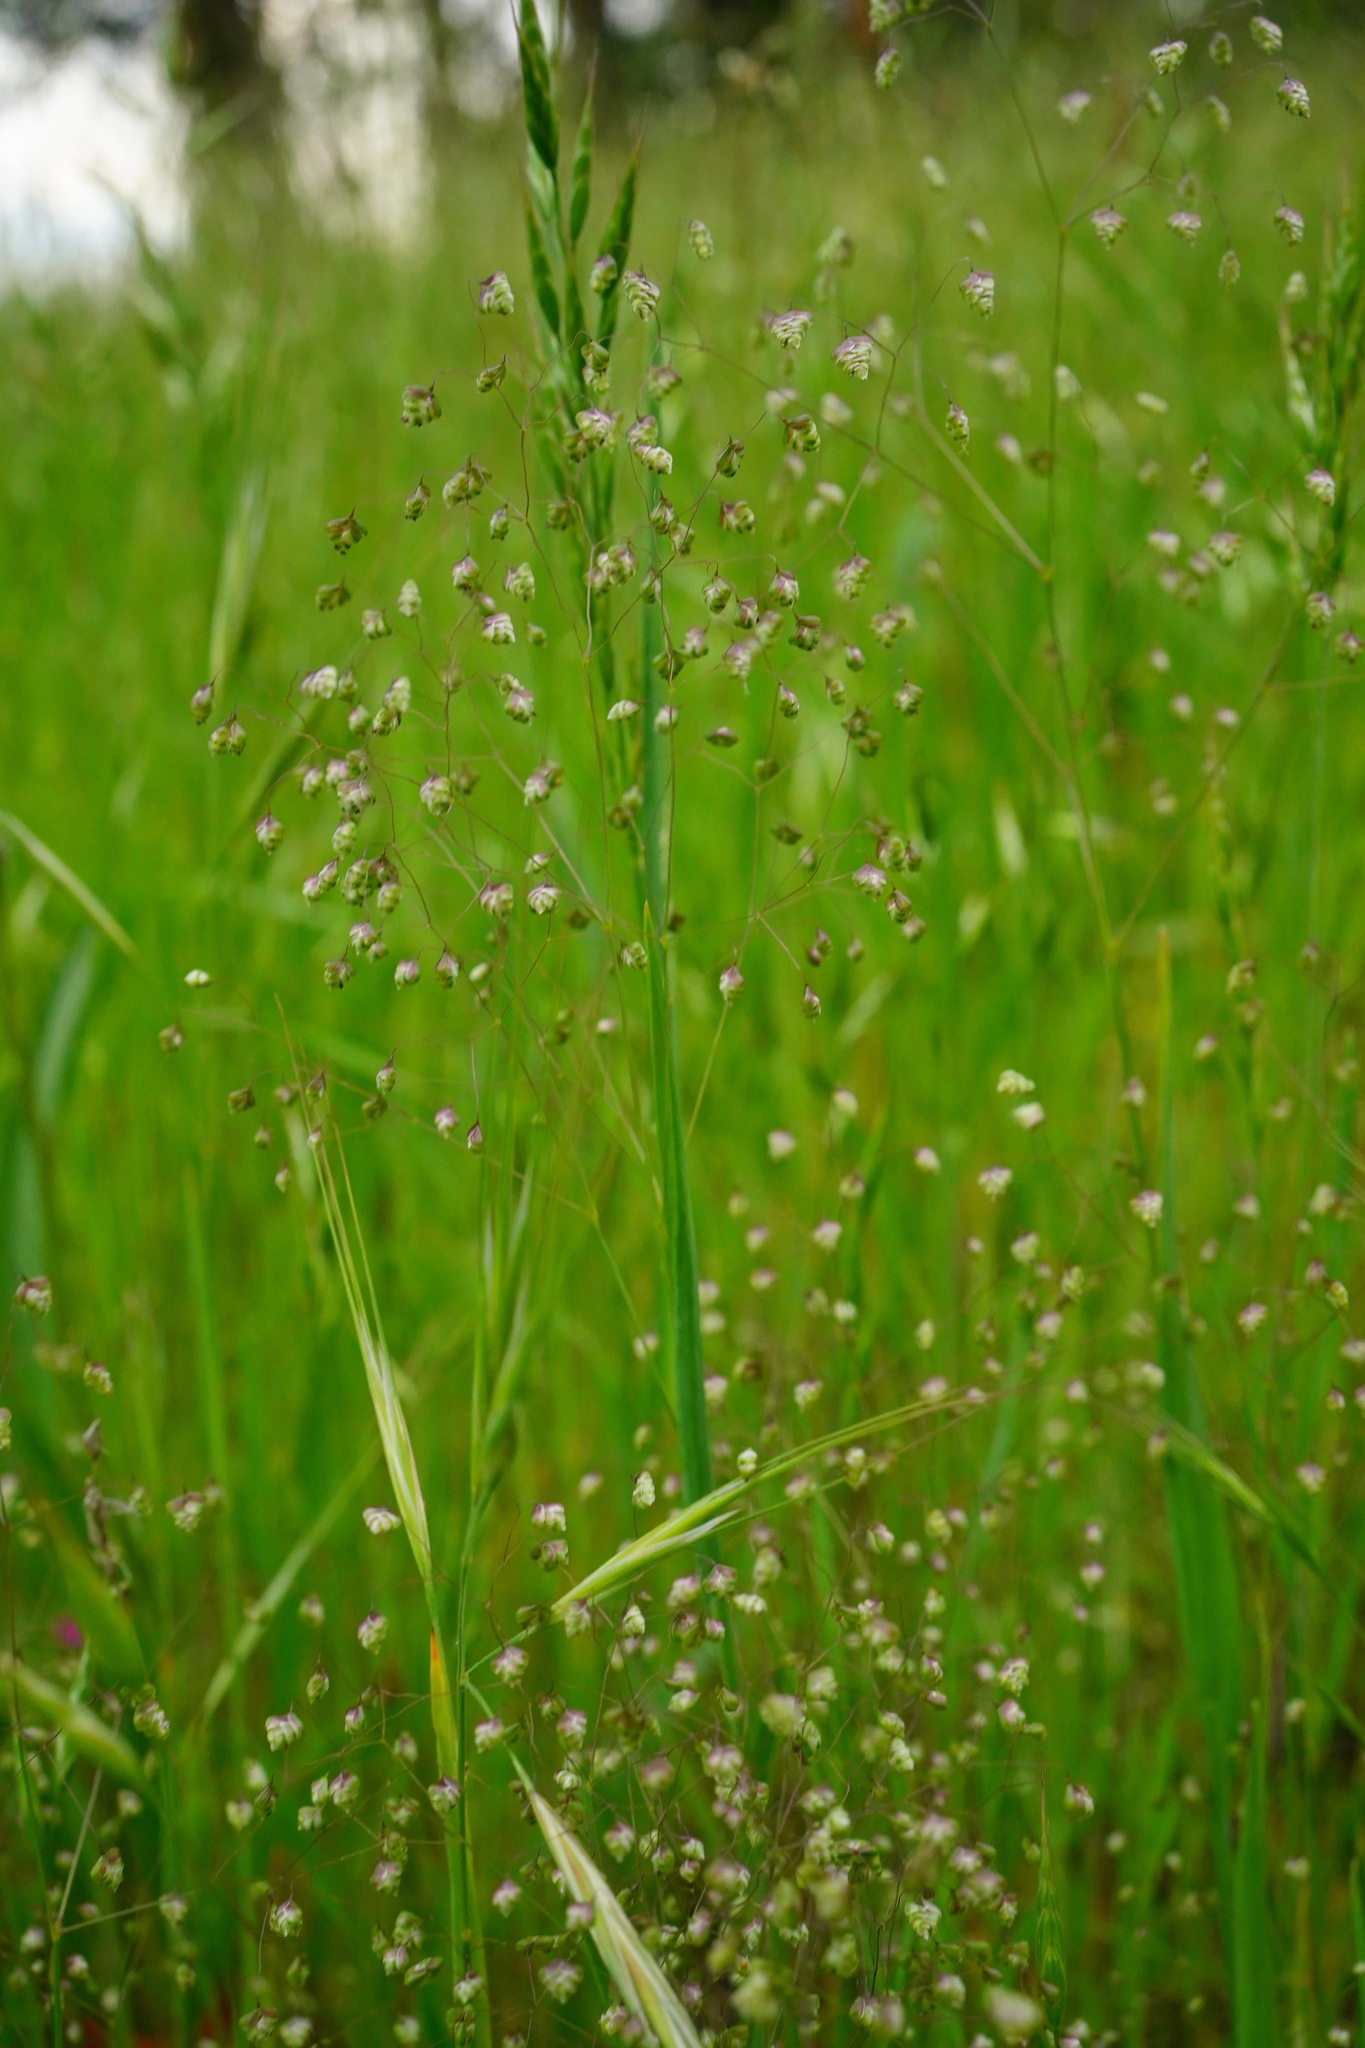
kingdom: Plantae
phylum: Tracheophyta
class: Liliopsida
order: Poales
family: Poaceae
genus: Briza
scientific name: Briza minor
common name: Lesser quaking-grass
